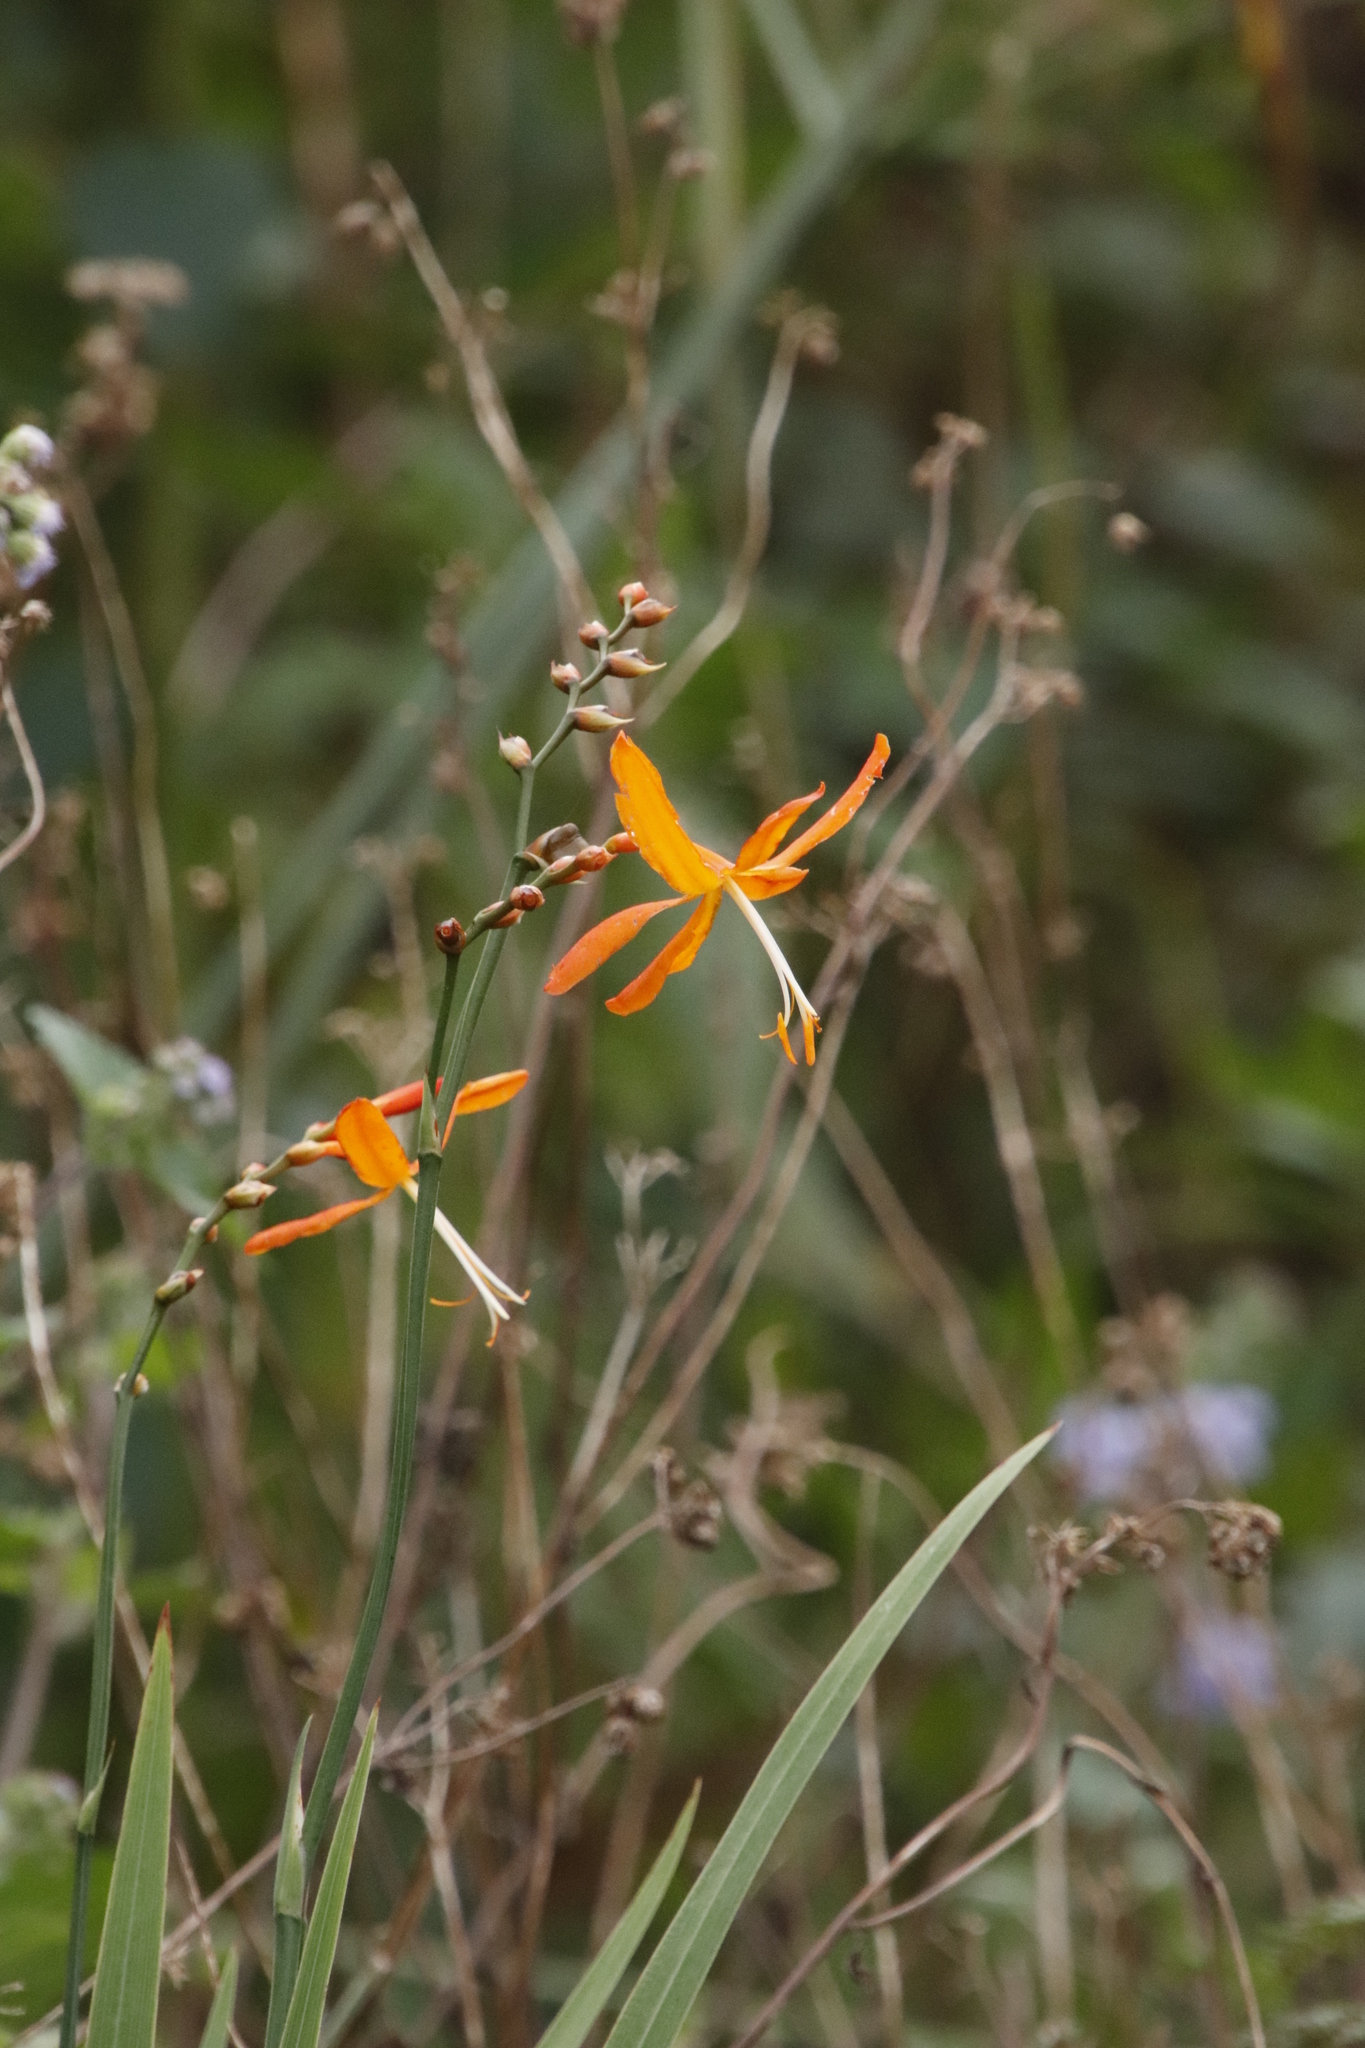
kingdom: Plantae
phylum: Tracheophyta
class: Liliopsida
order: Asparagales
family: Iridaceae
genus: Crocosmia
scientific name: Crocosmia aurea
